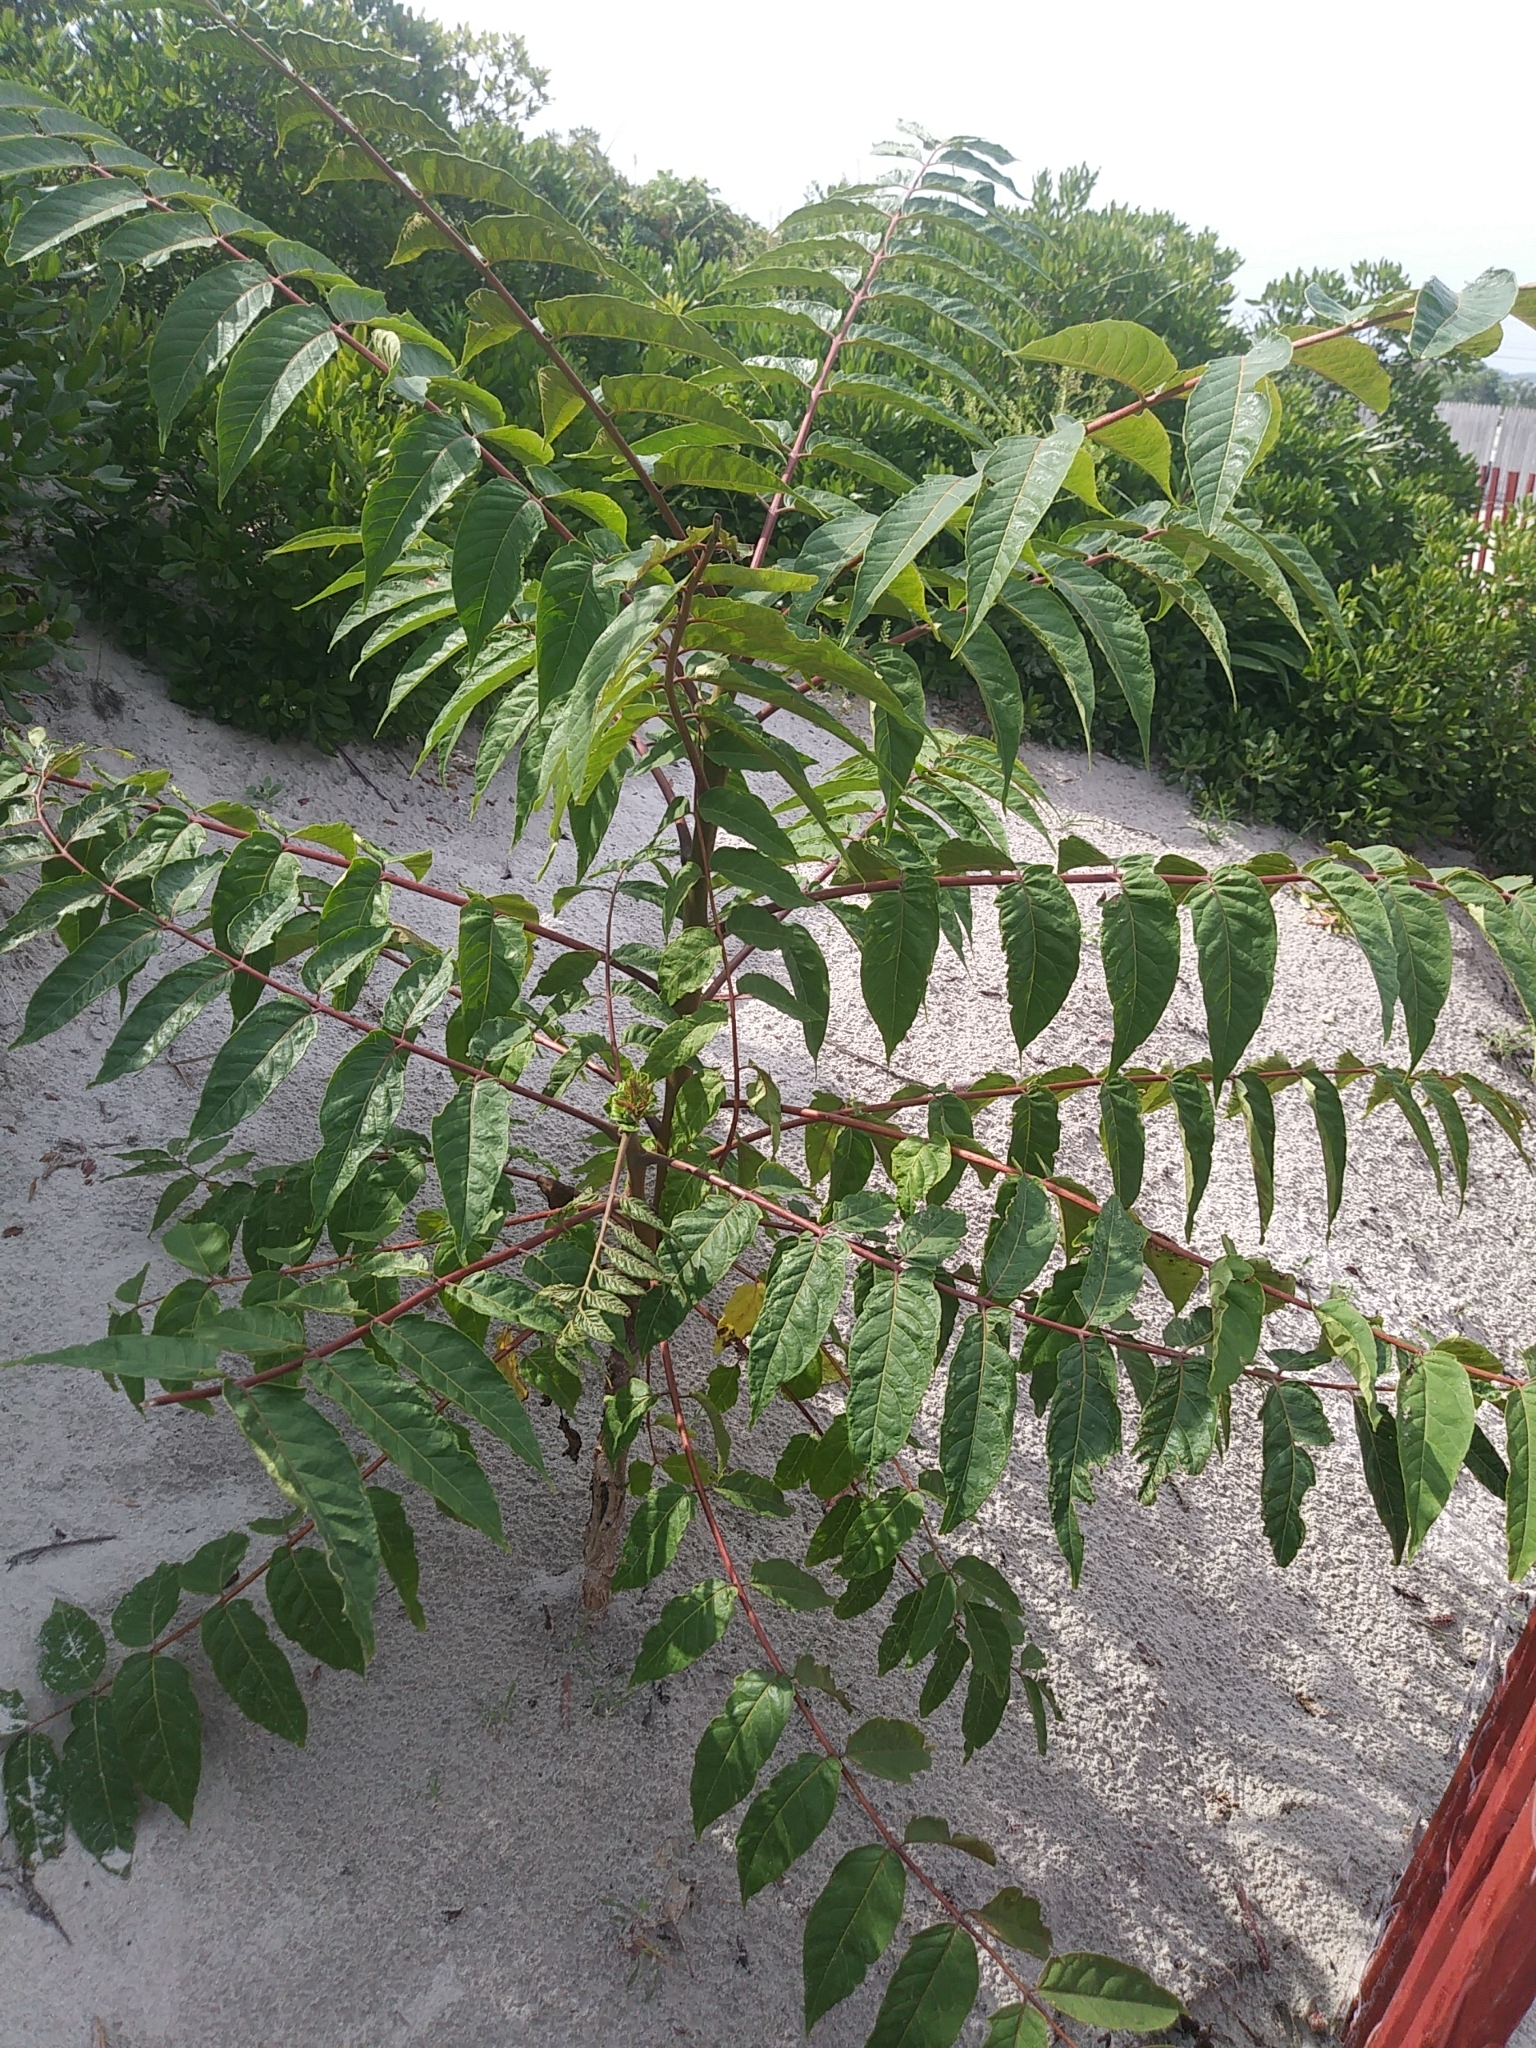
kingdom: Plantae
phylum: Tracheophyta
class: Magnoliopsida
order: Sapindales
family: Simaroubaceae
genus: Ailanthus
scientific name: Ailanthus altissima
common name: Tree-of-heaven
